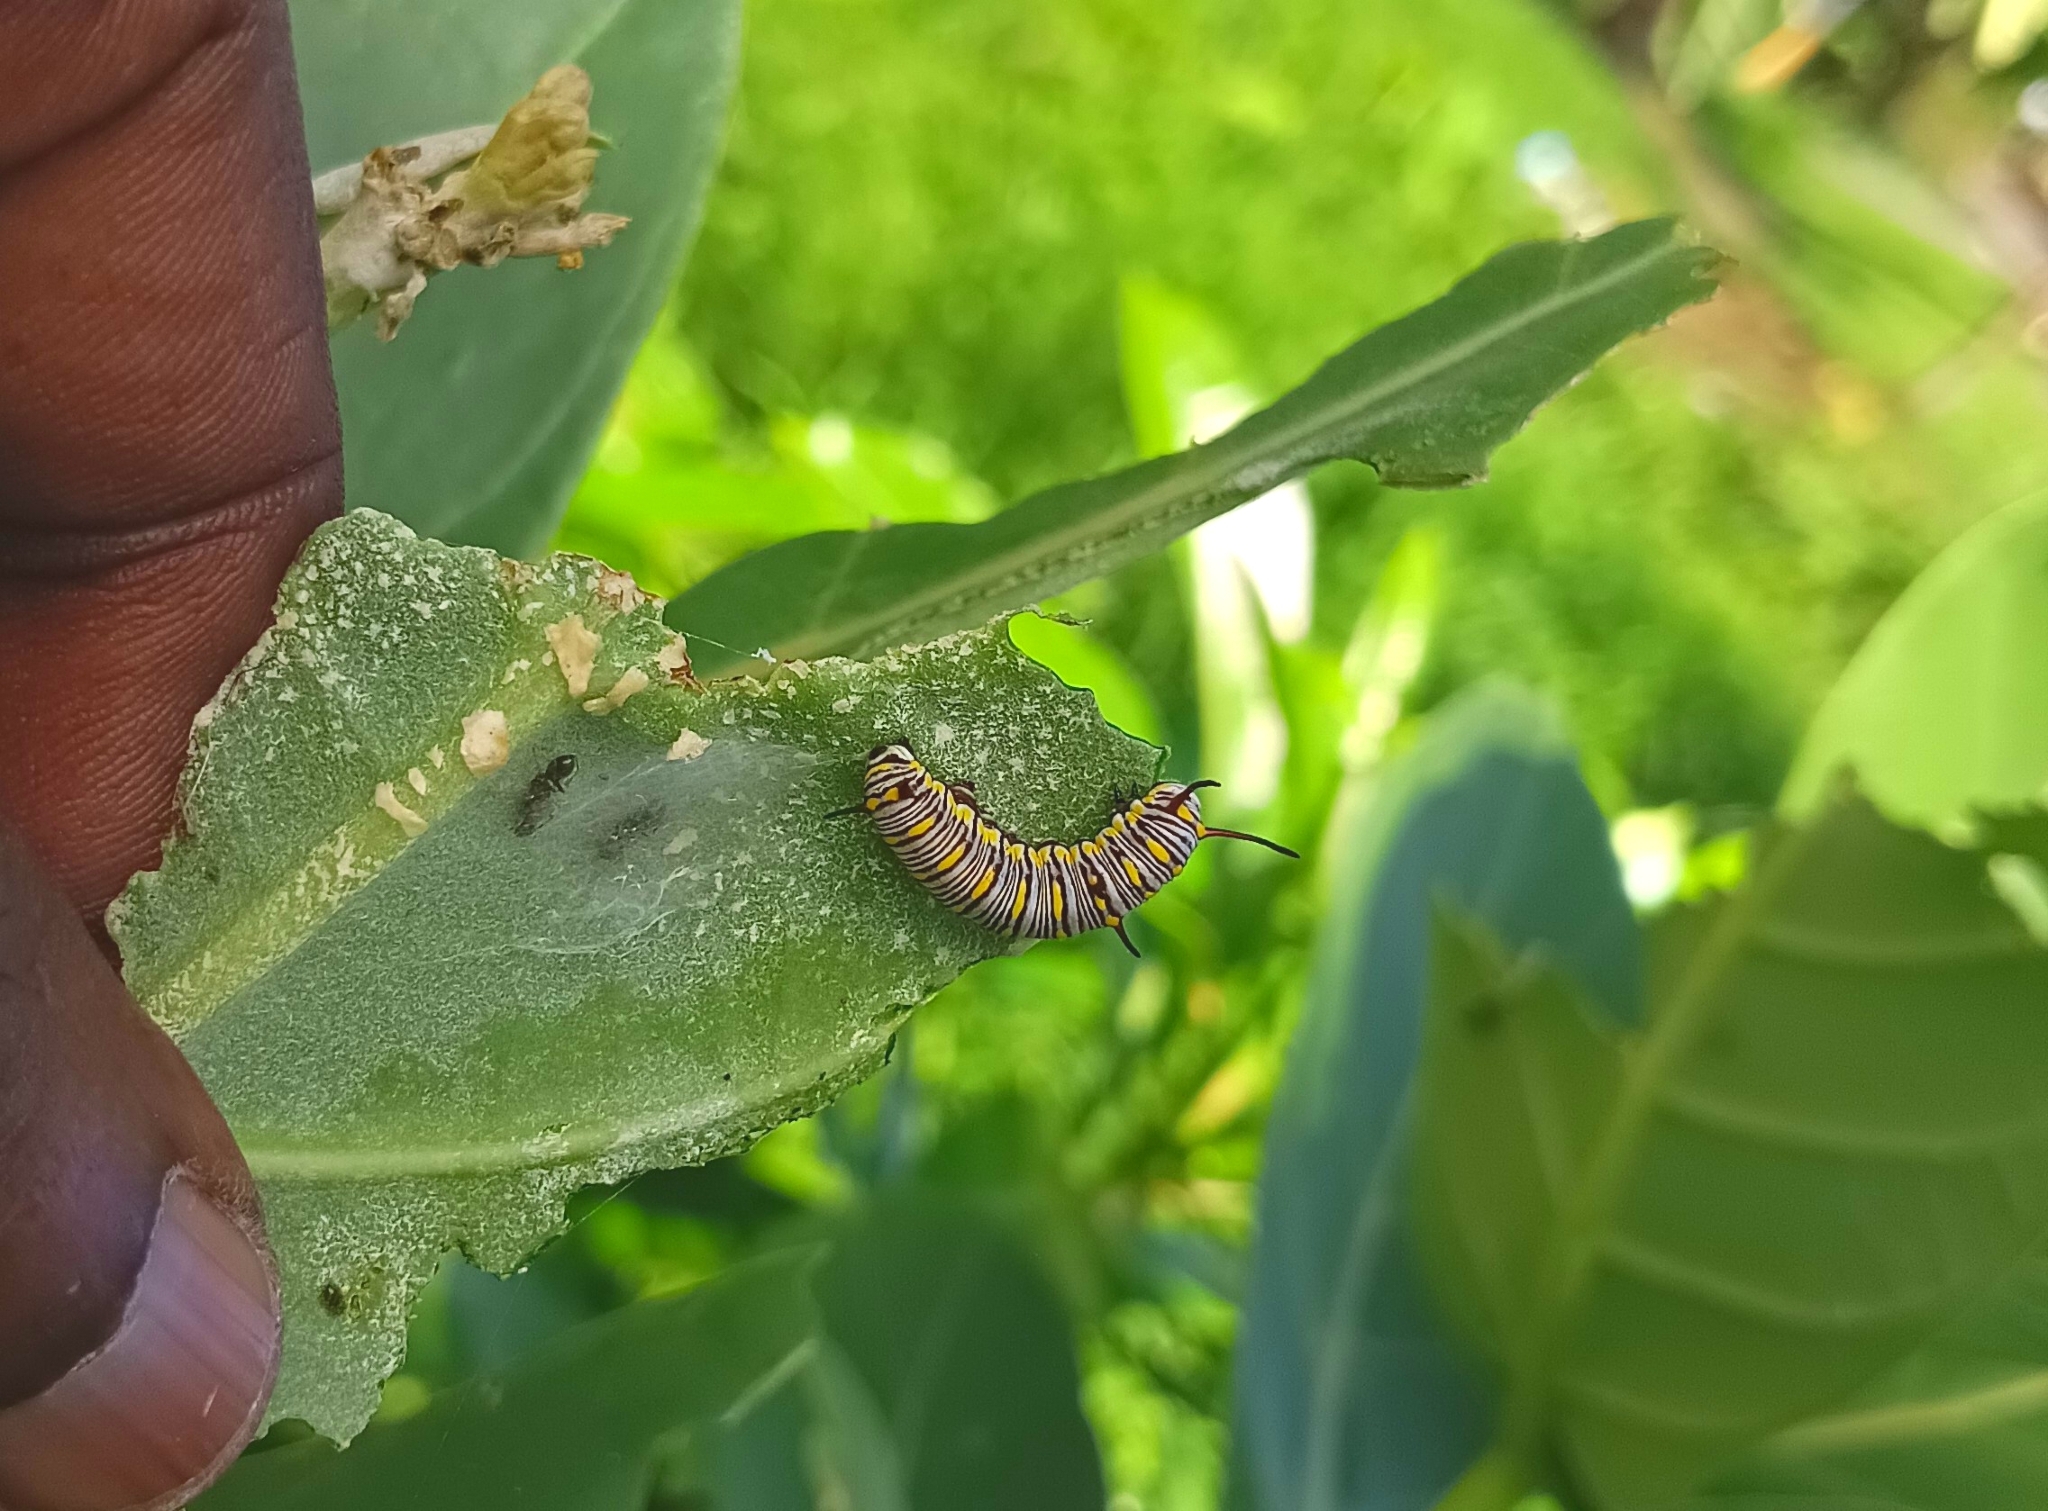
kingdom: Animalia
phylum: Arthropoda
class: Insecta
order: Lepidoptera
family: Nymphalidae
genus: Danaus
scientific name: Danaus chrysippus
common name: Plain tiger
